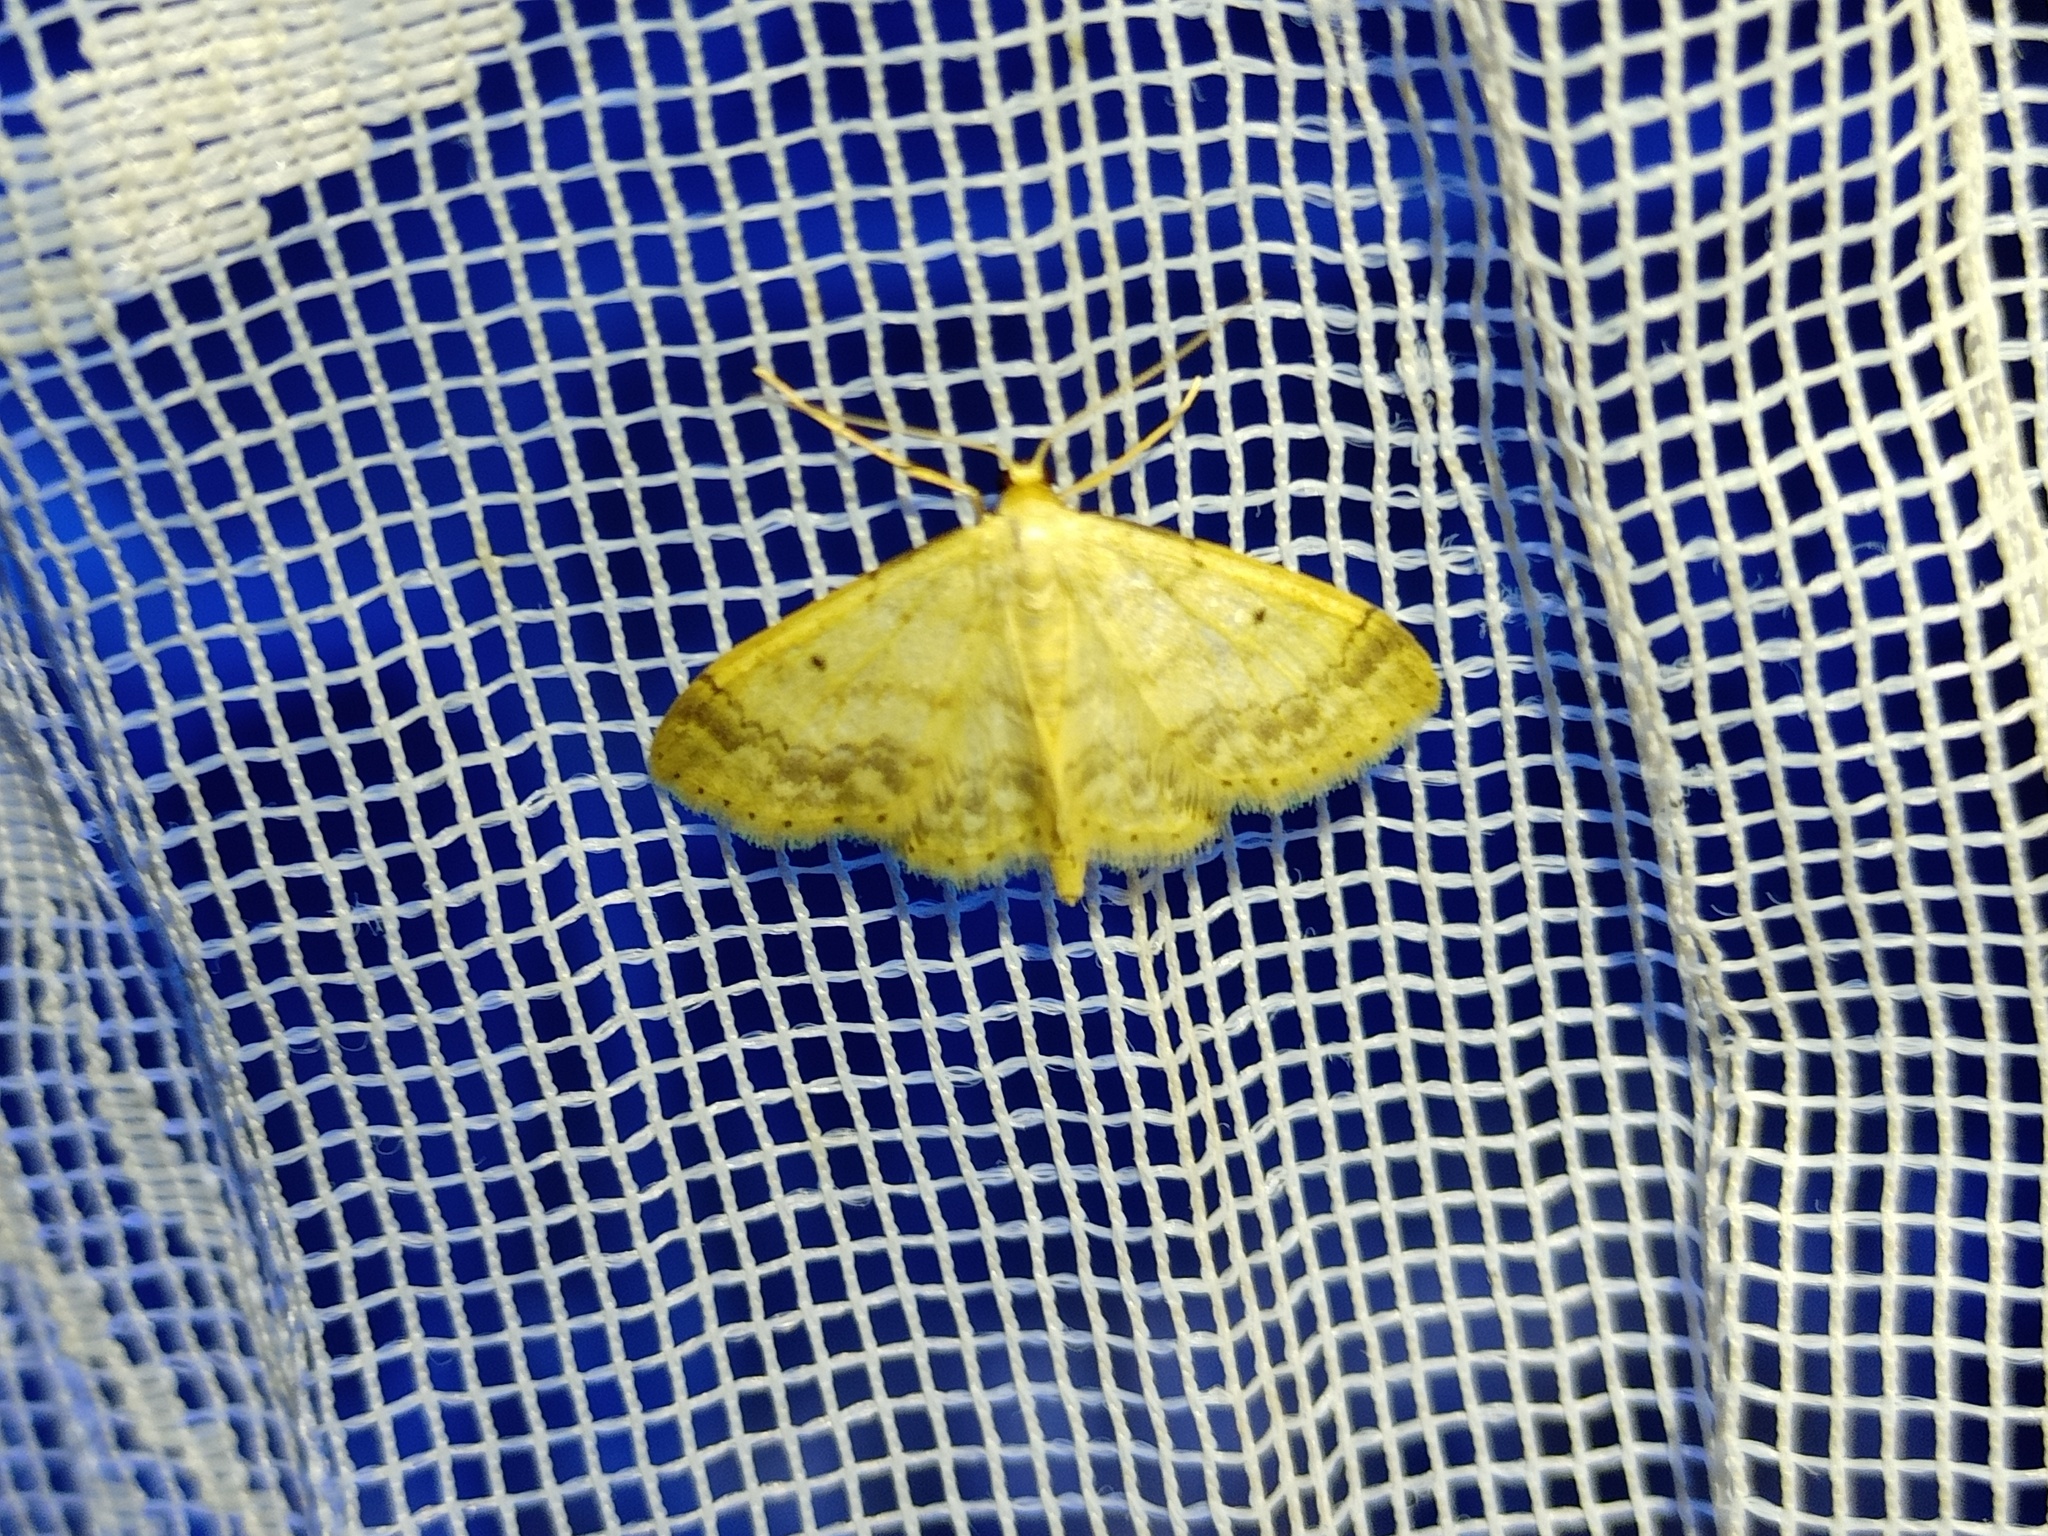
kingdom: Animalia
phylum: Arthropoda
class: Insecta
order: Lepidoptera
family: Geometridae
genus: Idaea
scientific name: Idaea biselata
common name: Small fan-footed wave
